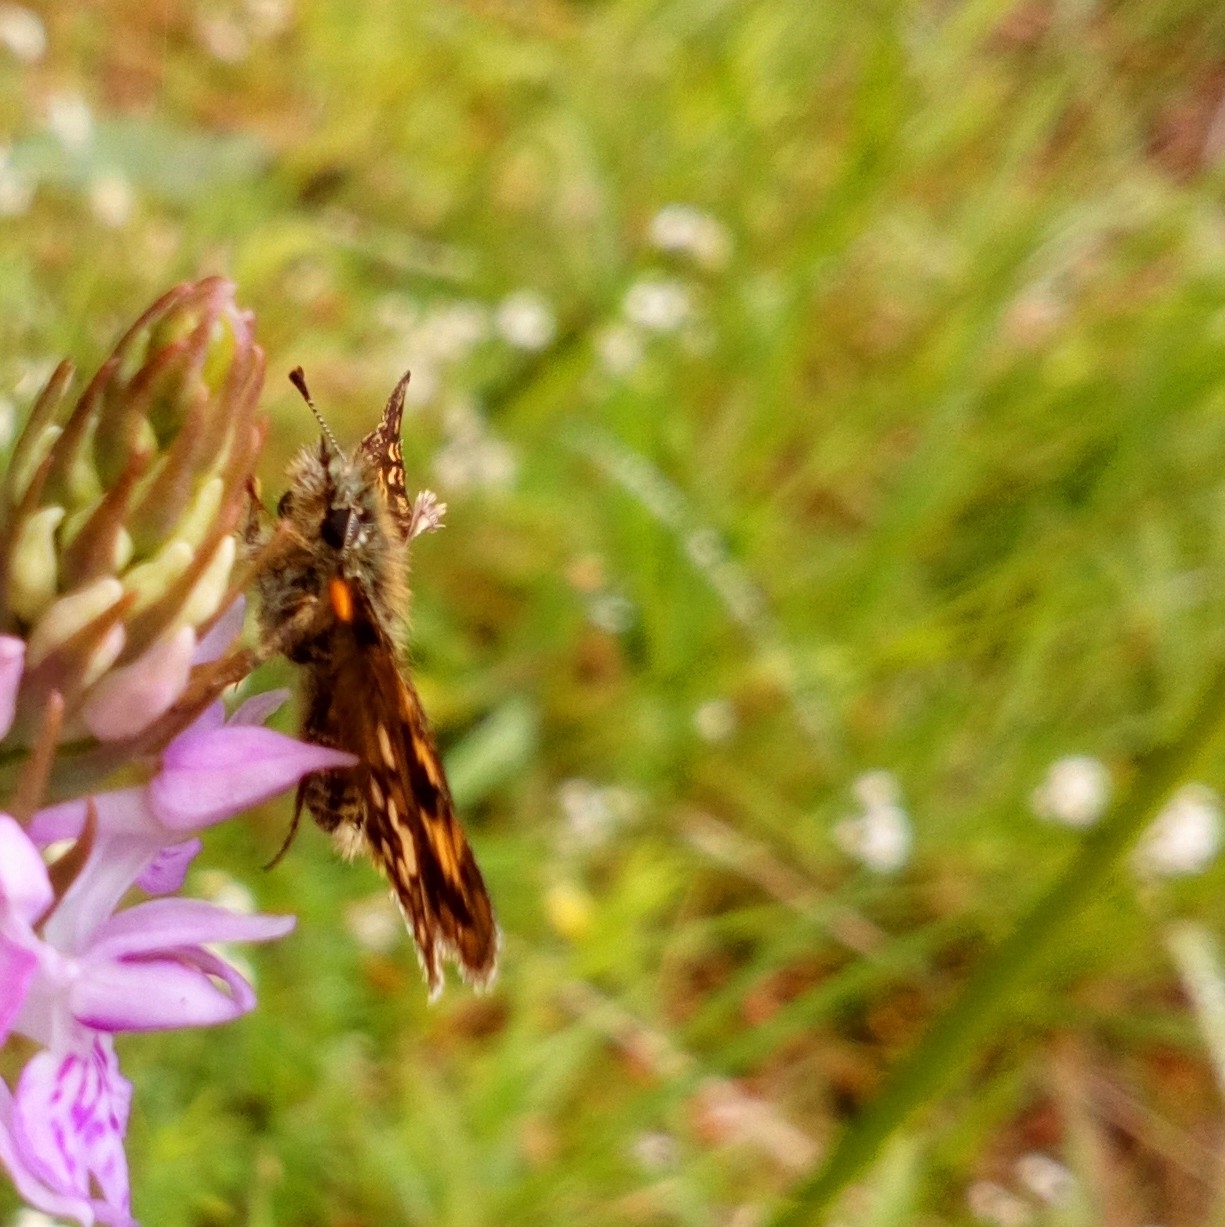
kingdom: Animalia
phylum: Arthropoda
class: Insecta
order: Lepidoptera
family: Hesperiidae
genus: Carterocephalus
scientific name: Carterocephalus palaemon
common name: Chequered skipper
